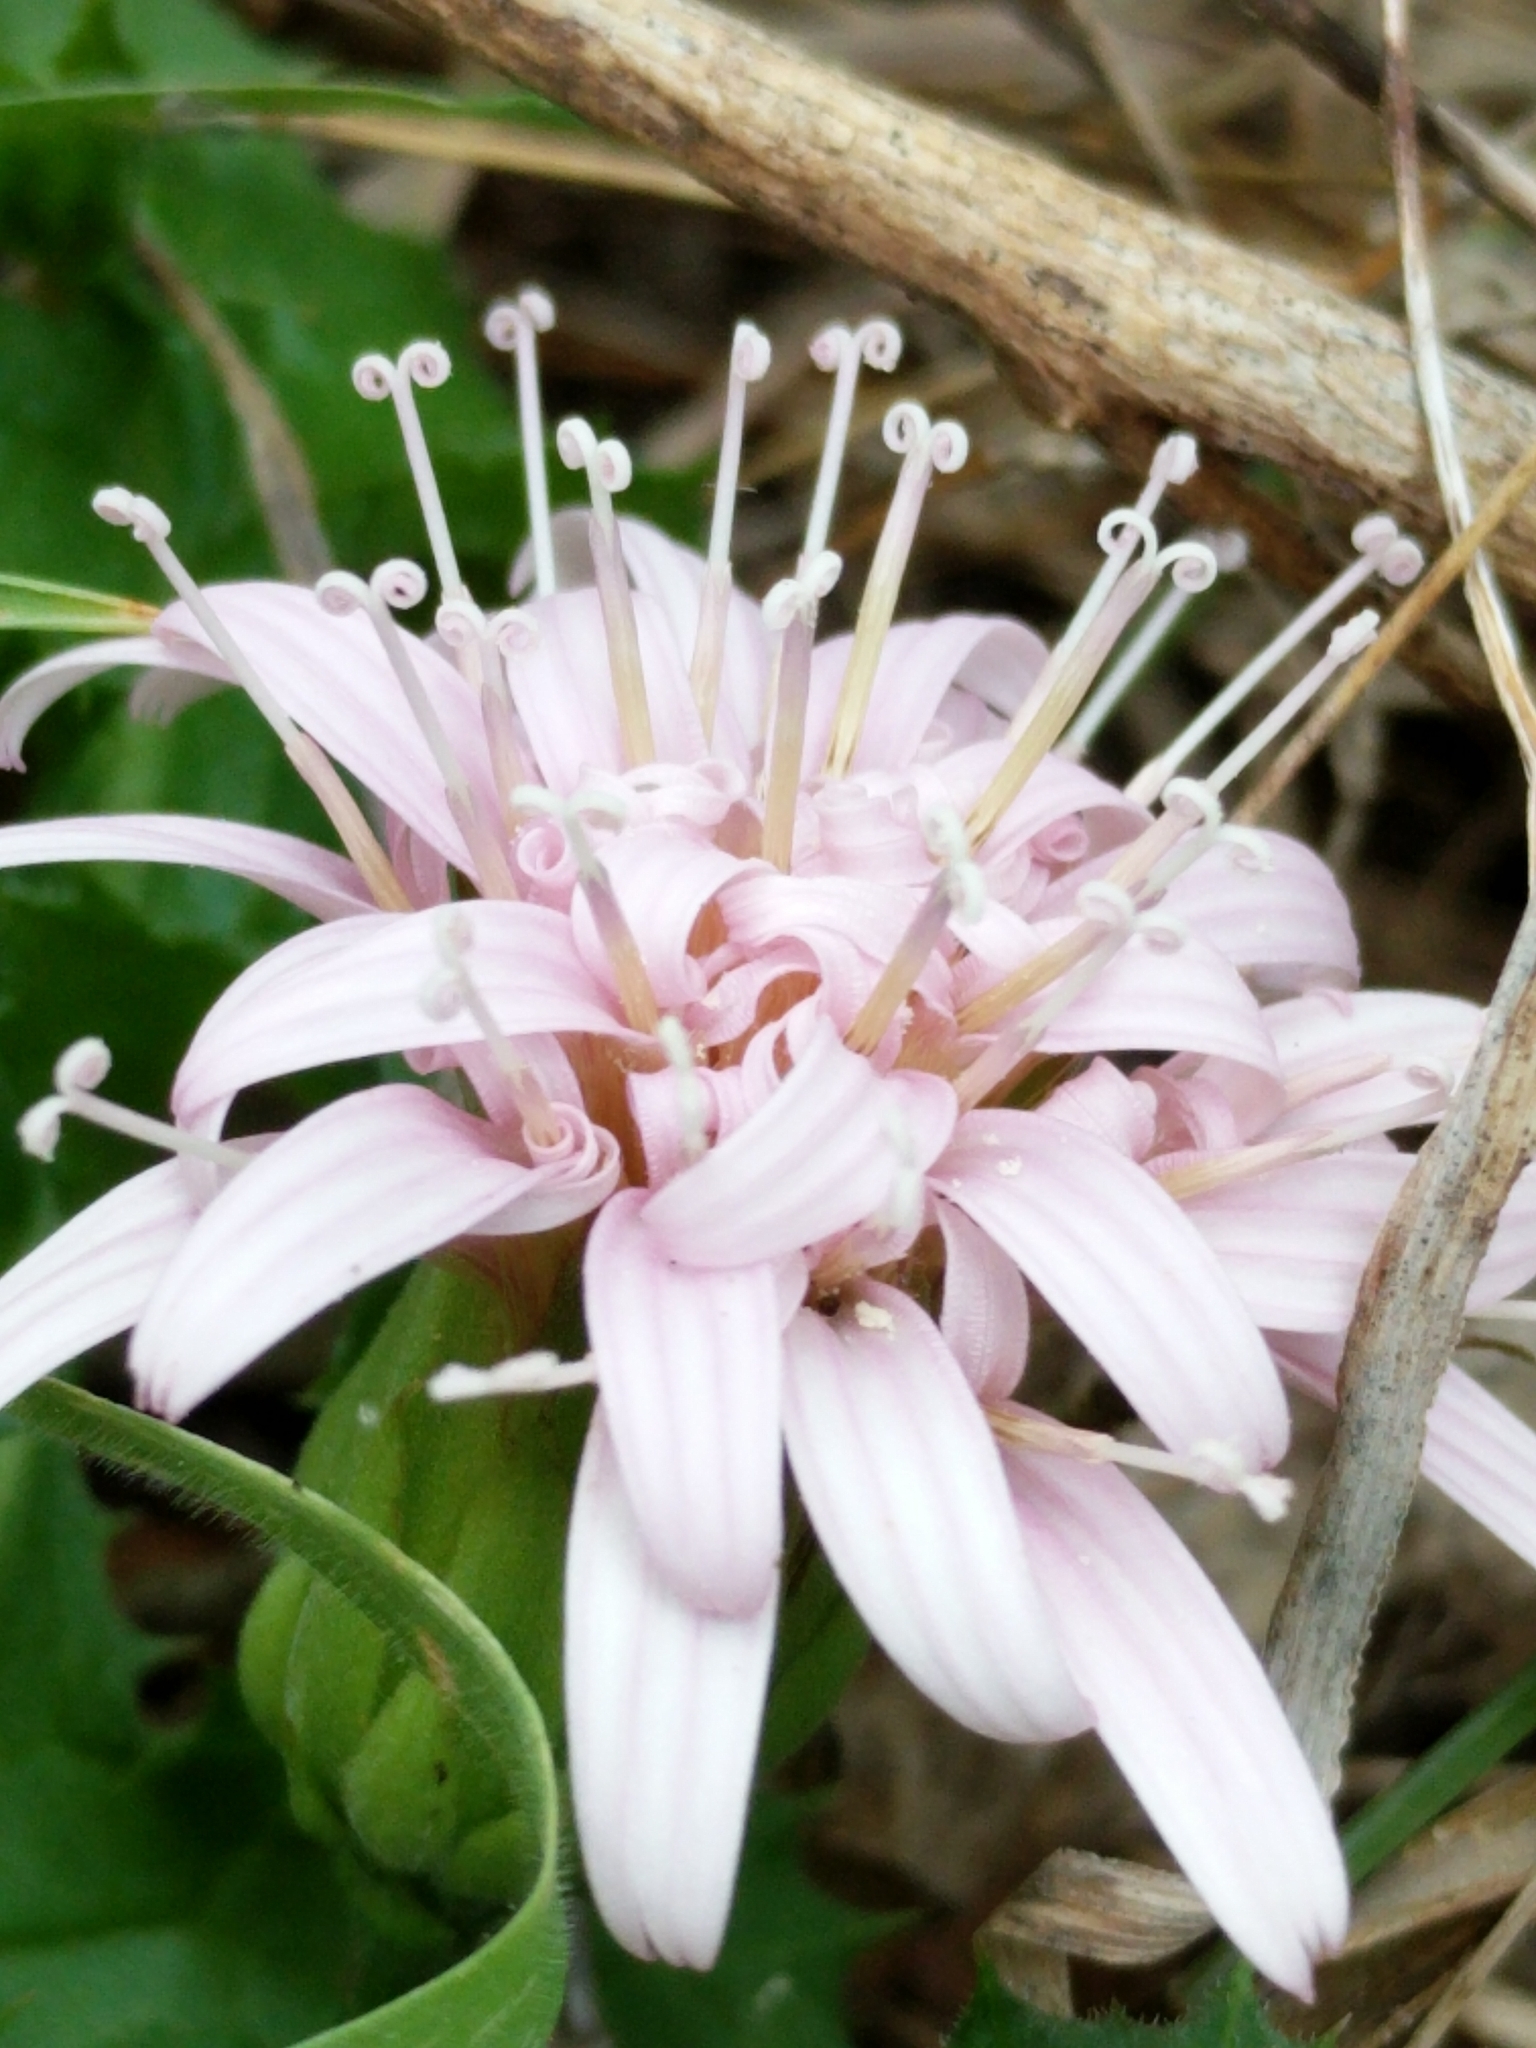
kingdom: Plantae
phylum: Tracheophyta
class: Magnoliopsida
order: Asterales
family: Asteraceae
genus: Acourtia
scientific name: Acourtia runcinata
